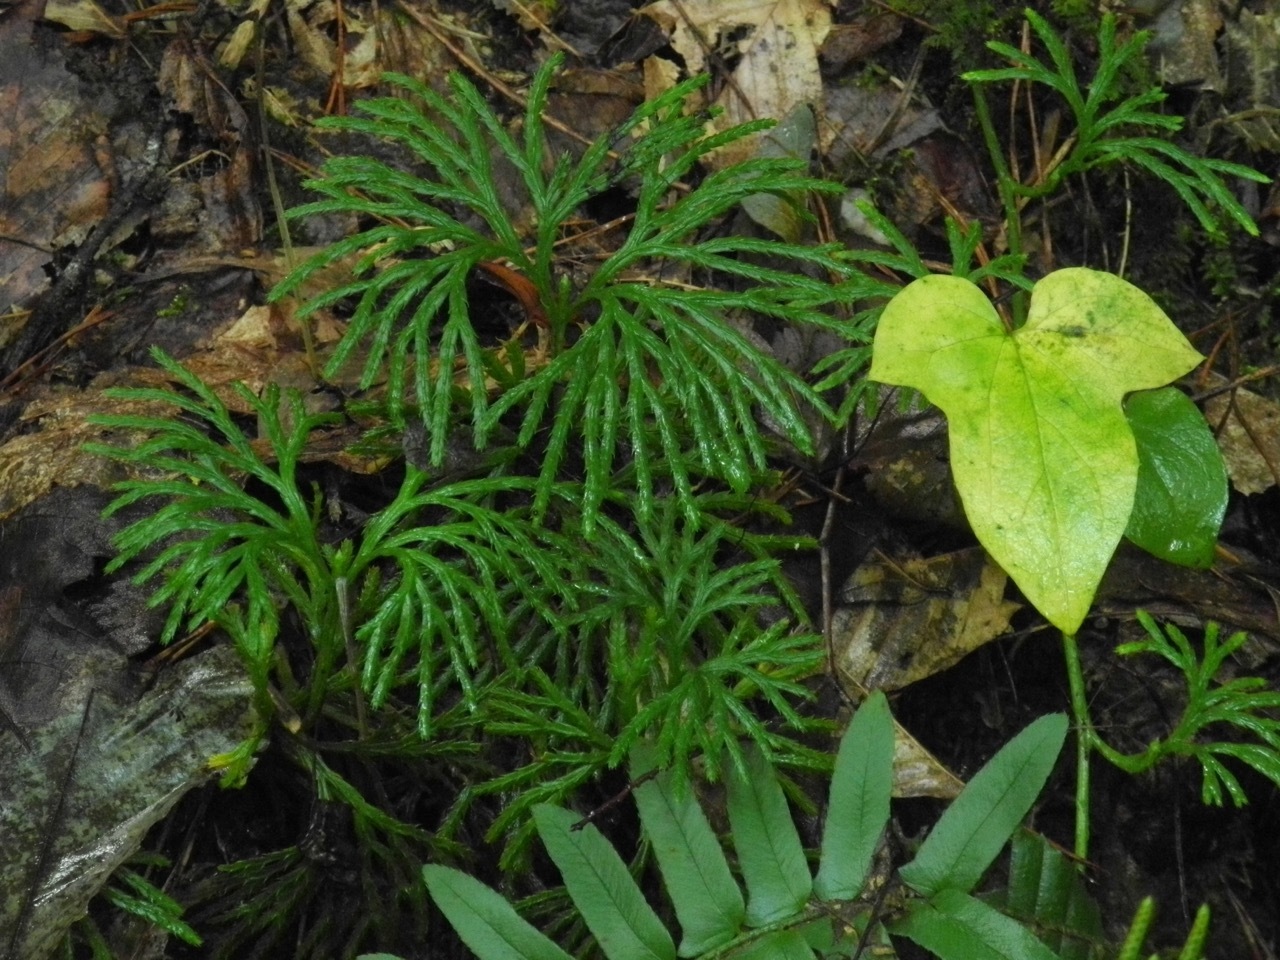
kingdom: Plantae
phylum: Tracheophyta
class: Lycopodiopsida
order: Lycopodiales
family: Lycopodiaceae
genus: Diphasiastrum
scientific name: Diphasiastrum digitatum
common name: Southern running-pine
